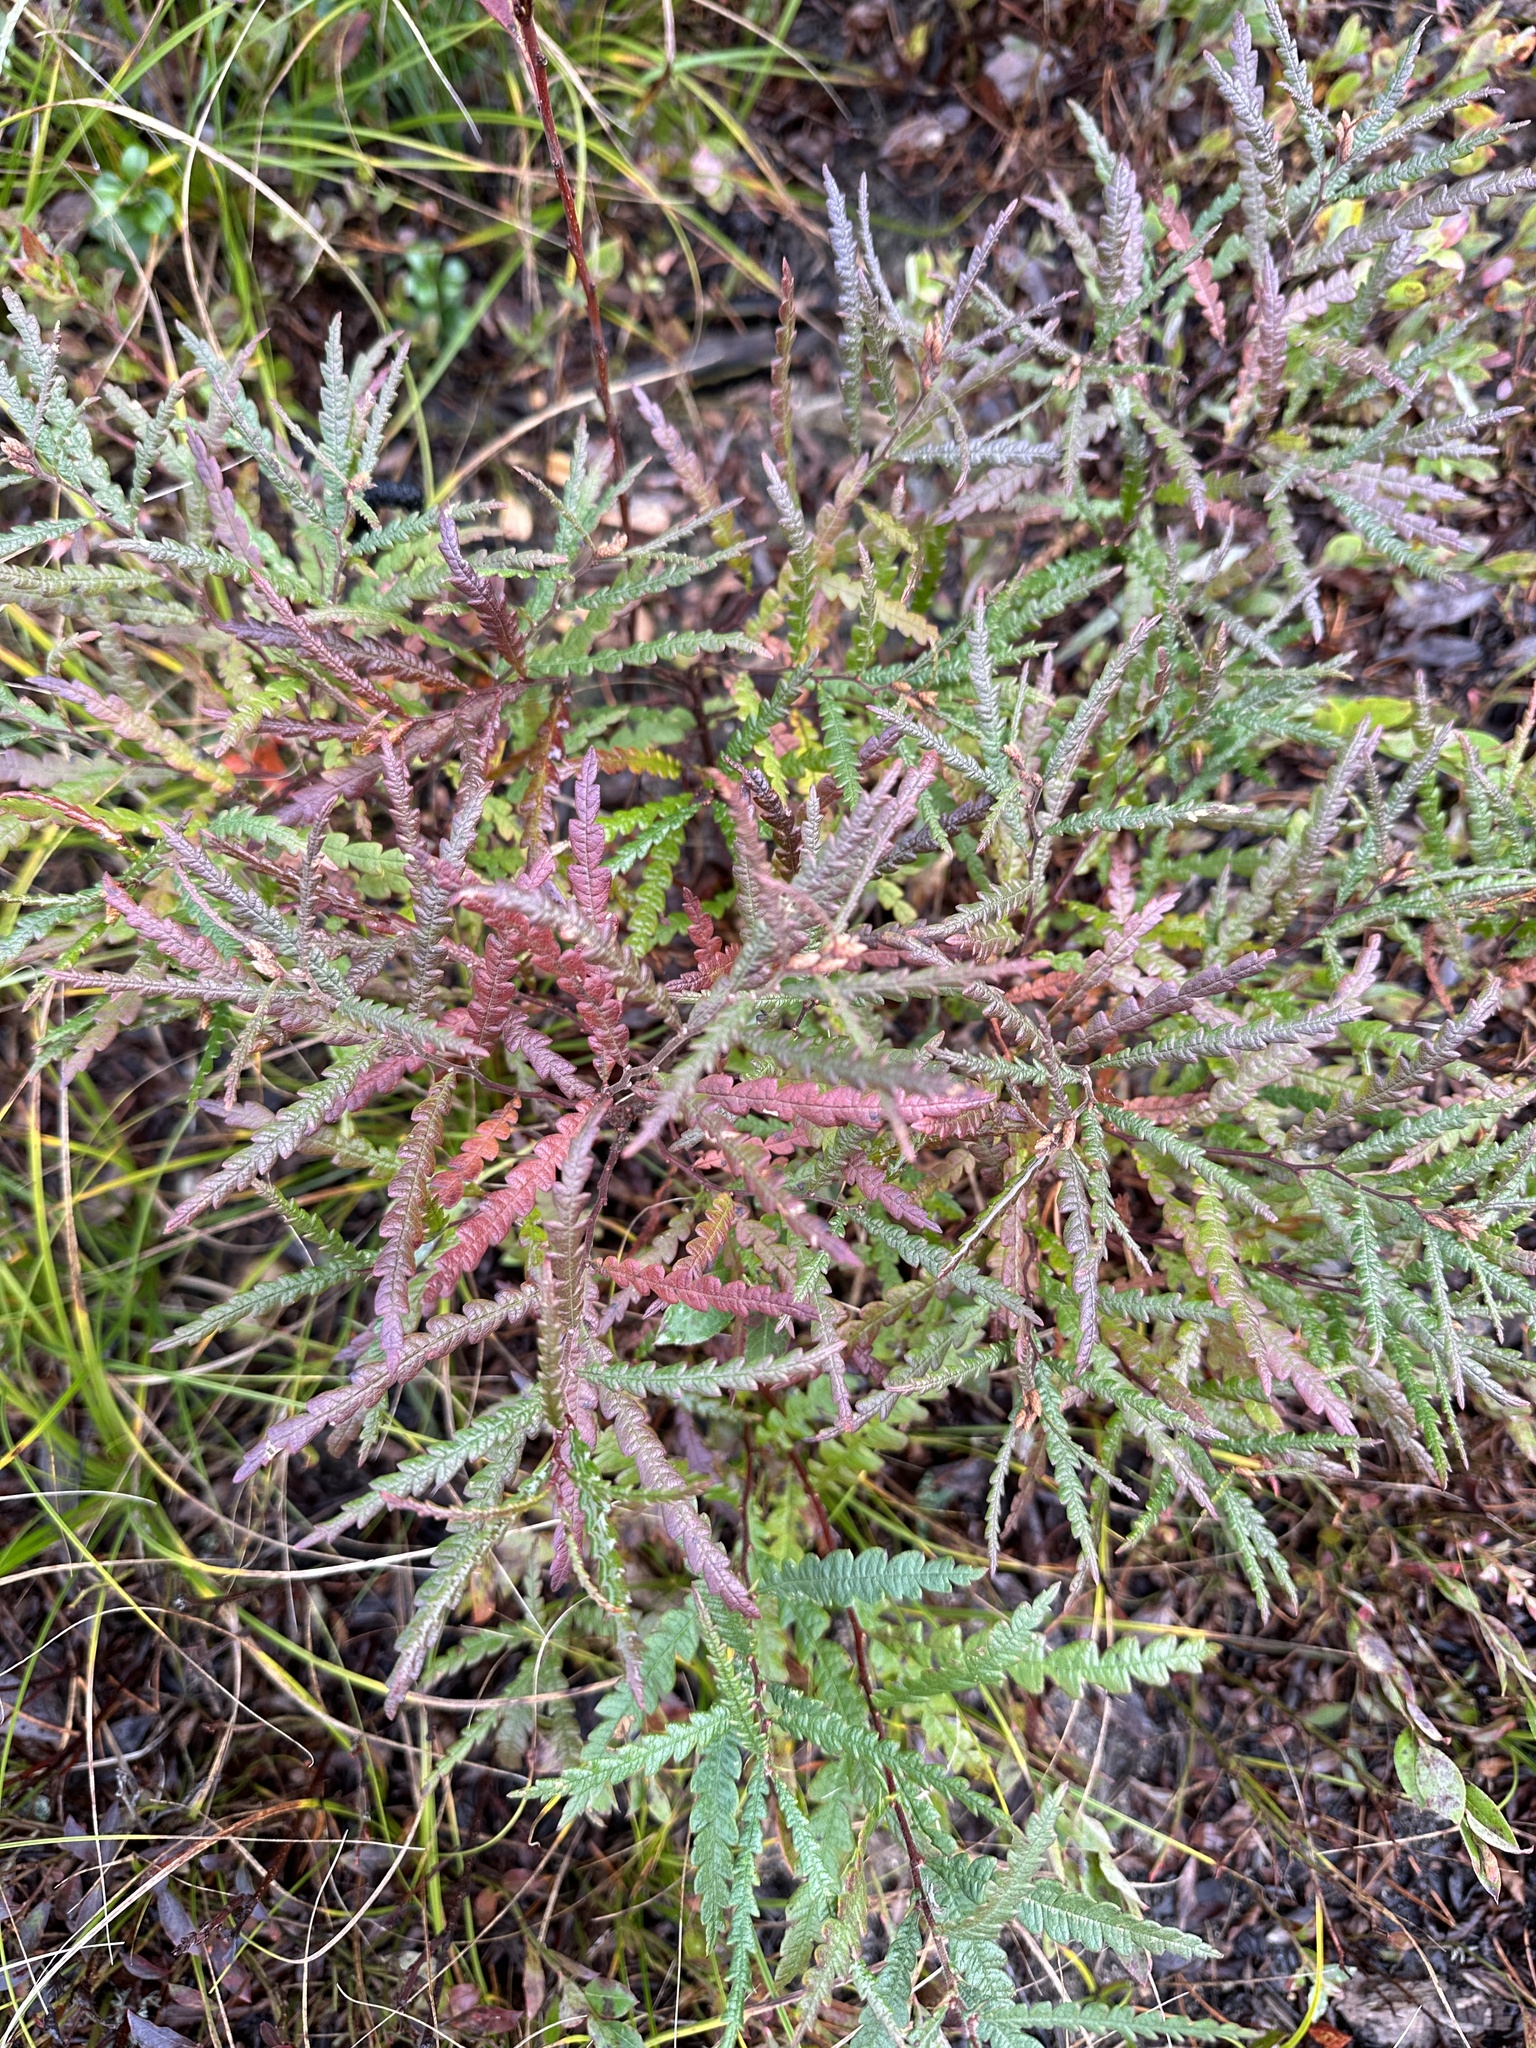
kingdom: Plantae
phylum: Tracheophyta
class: Magnoliopsida
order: Fagales
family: Myricaceae
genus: Comptonia
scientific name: Comptonia peregrina
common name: Sweet-fern
